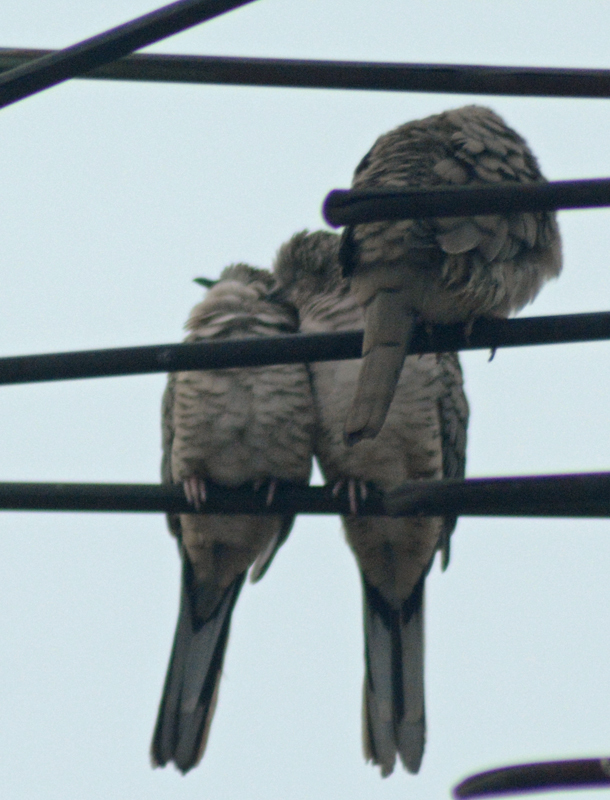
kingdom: Animalia
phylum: Chordata
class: Aves
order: Columbiformes
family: Columbidae
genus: Columbina
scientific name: Columbina inca
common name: Inca dove
